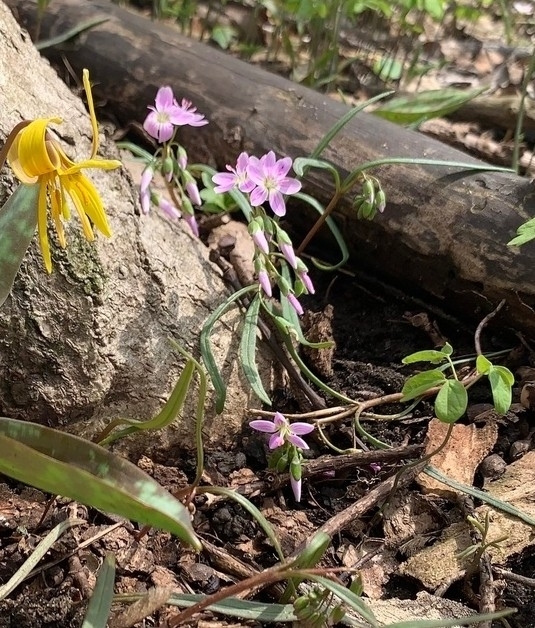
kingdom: Plantae
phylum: Tracheophyta
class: Magnoliopsida
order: Caryophyllales
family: Montiaceae
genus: Claytonia
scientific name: Claytonia virginica
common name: Virginia springbeauty
